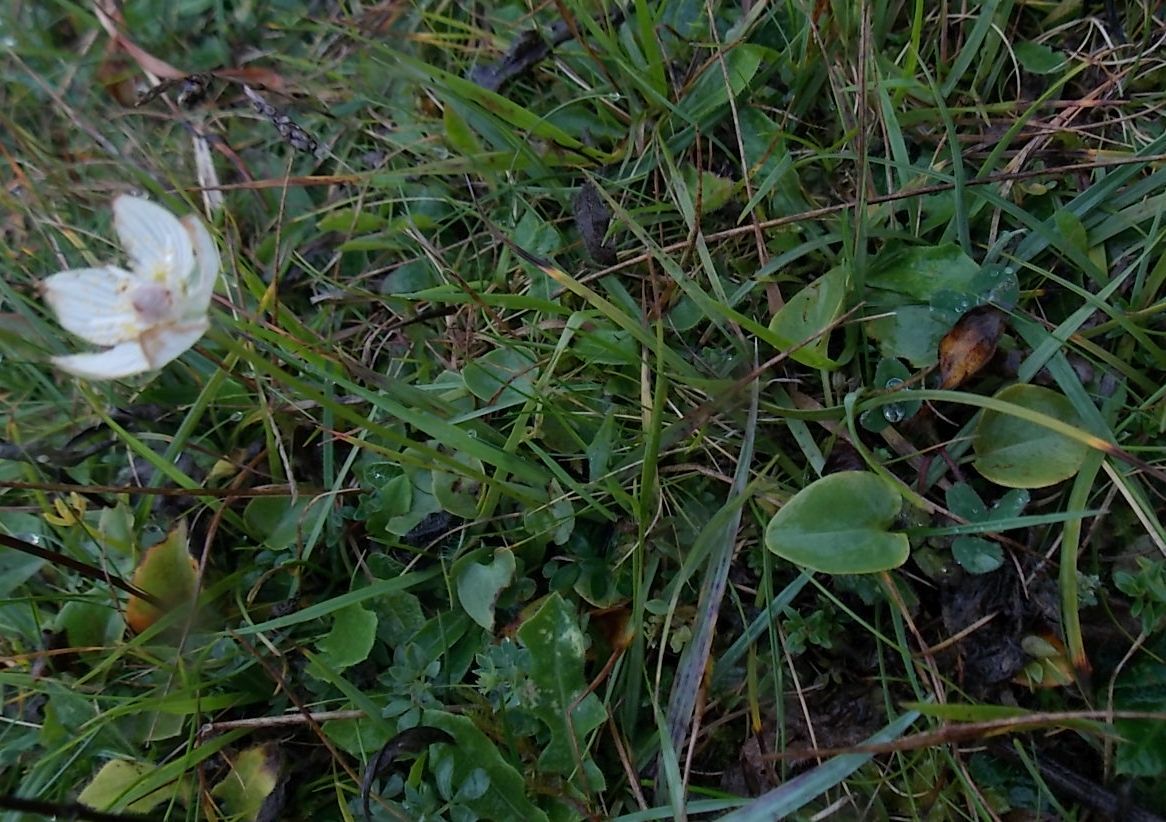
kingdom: Plantae
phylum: Tracheophyta
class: Magnoliopsida
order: Celastrales
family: Parnassiaceae
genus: Parnassia
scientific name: Parnassia palustris
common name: Grass-of-parnassus
